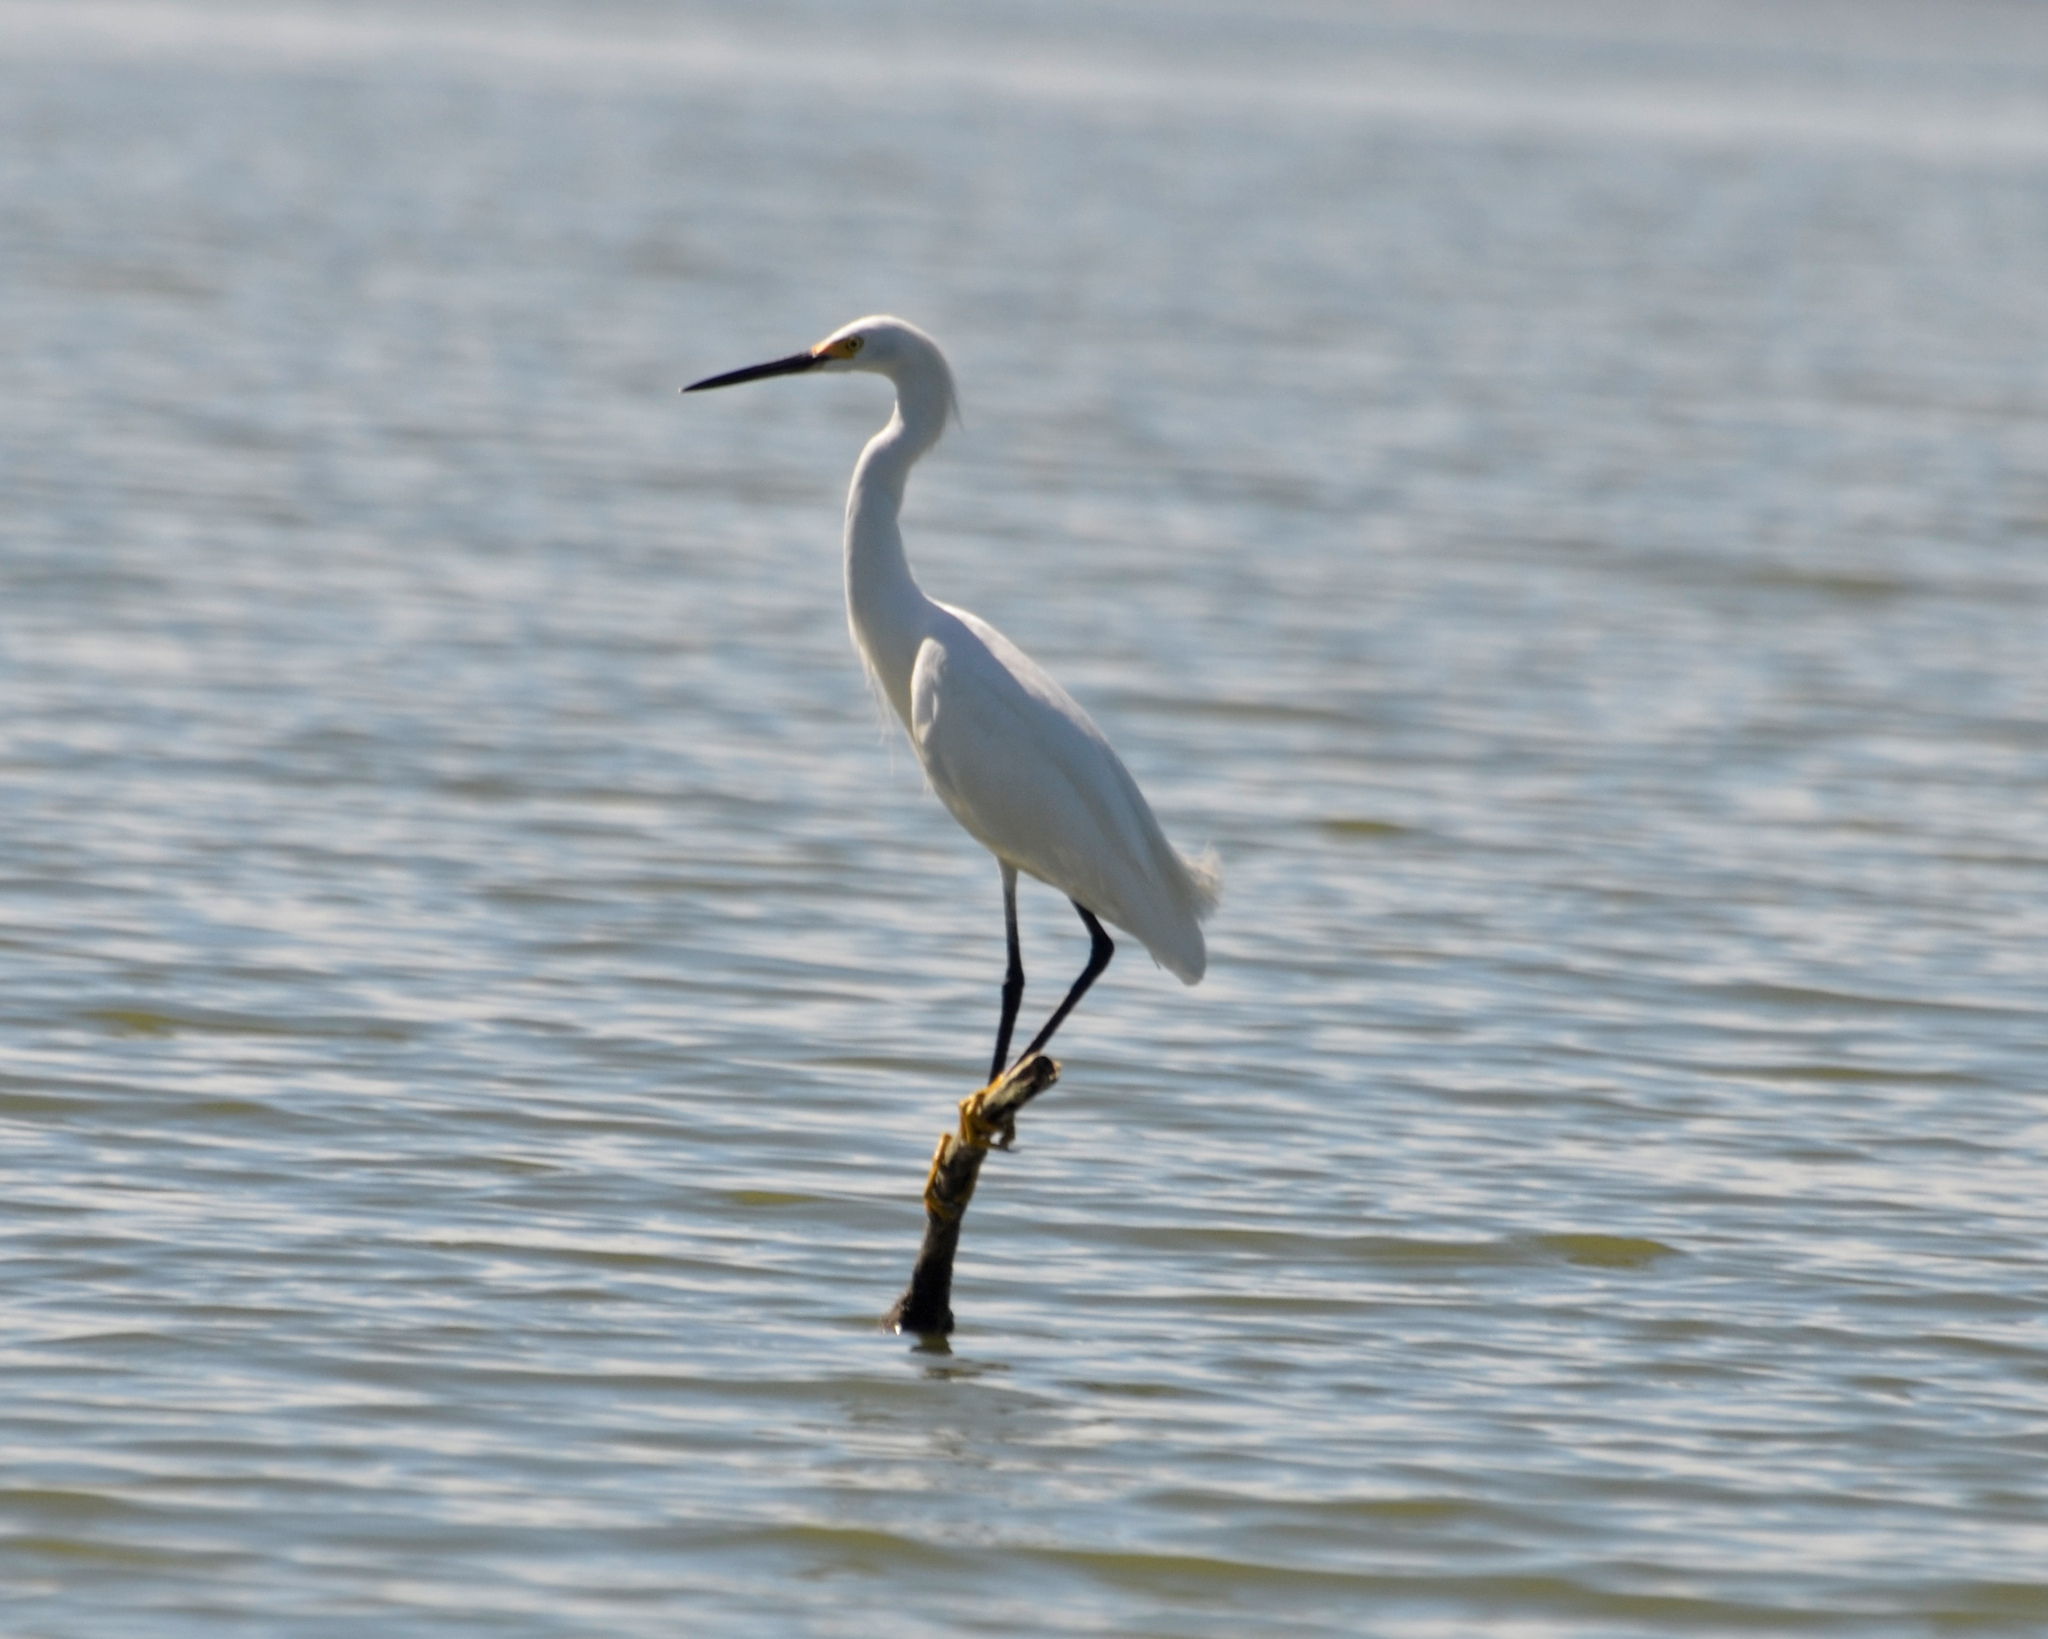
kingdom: Animalia
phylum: Chordata
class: Aves
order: Pelecaniformes
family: Ardeidae
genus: Egretta
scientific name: Egretta thula
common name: Snowy egret
